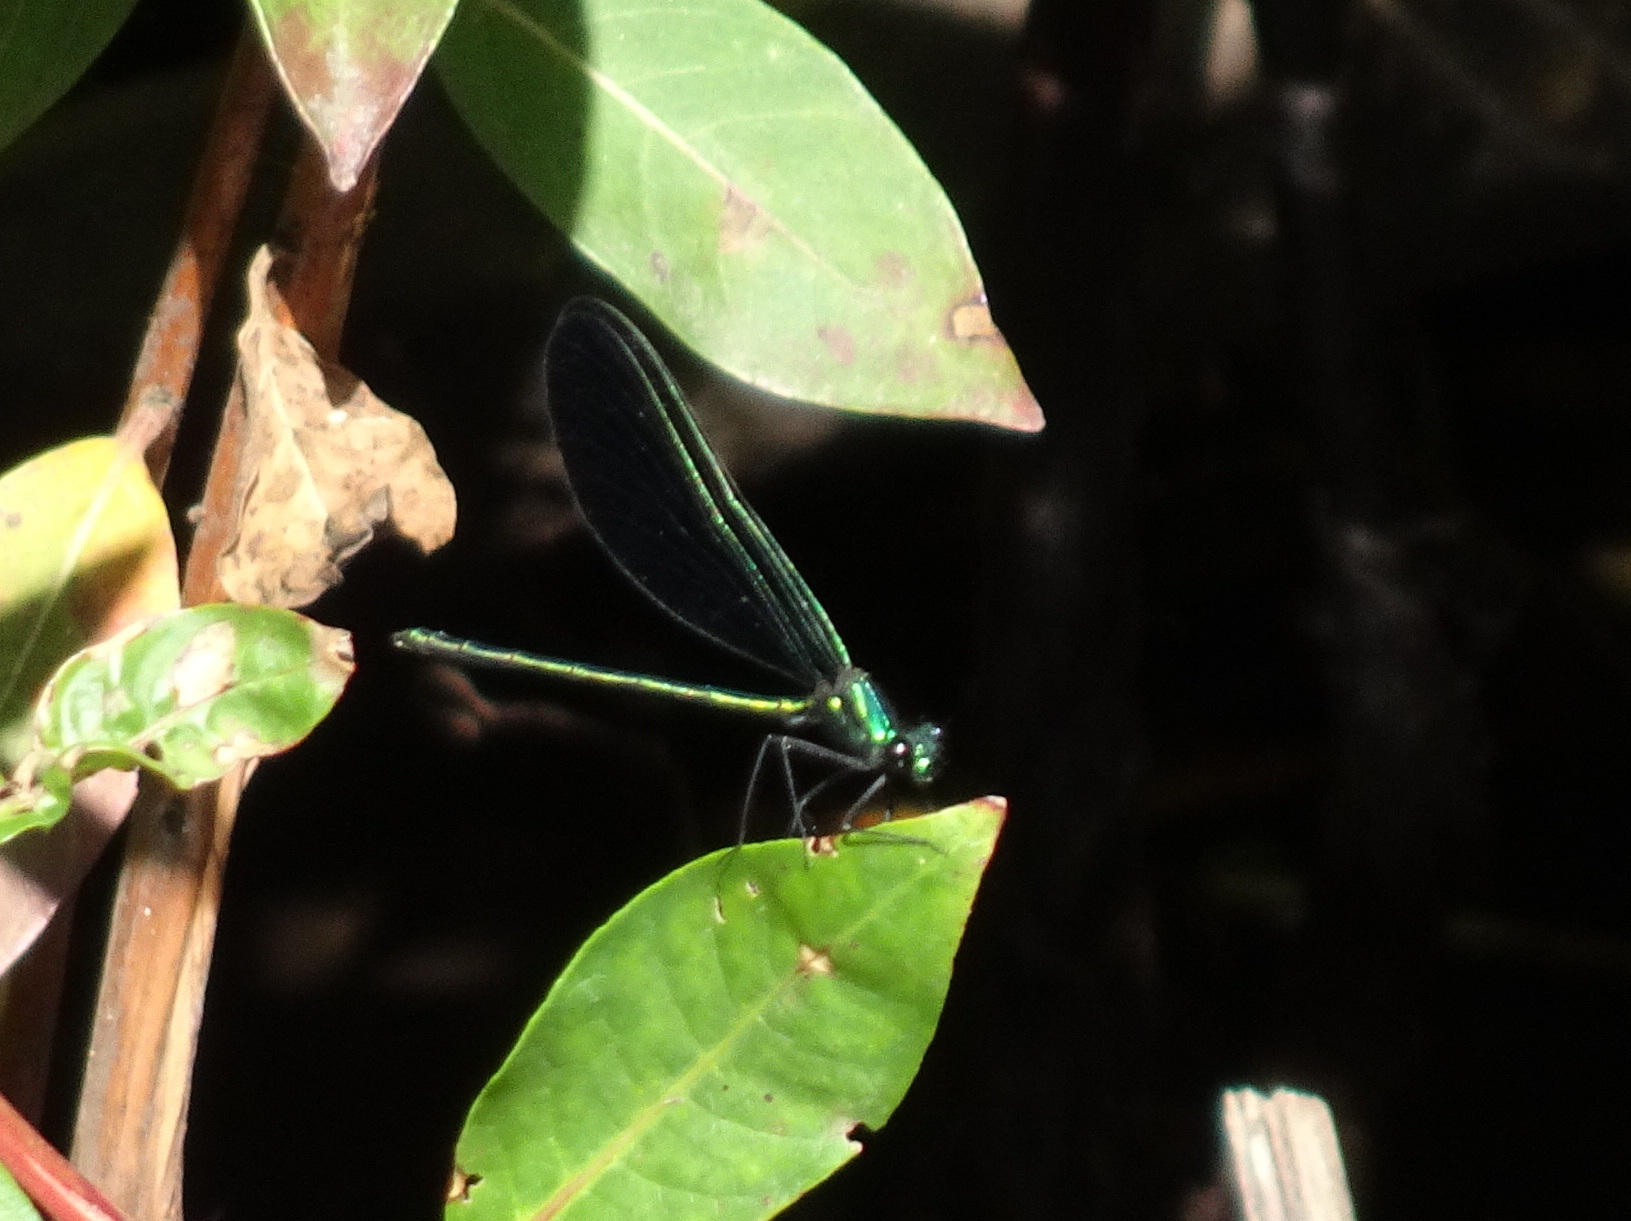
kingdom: Animalia
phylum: Arthropoda
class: Insecta
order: Odonata
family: Calopterygidae
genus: Calopteryx
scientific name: Calopteryx maculata
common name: Ebony jewelwing
